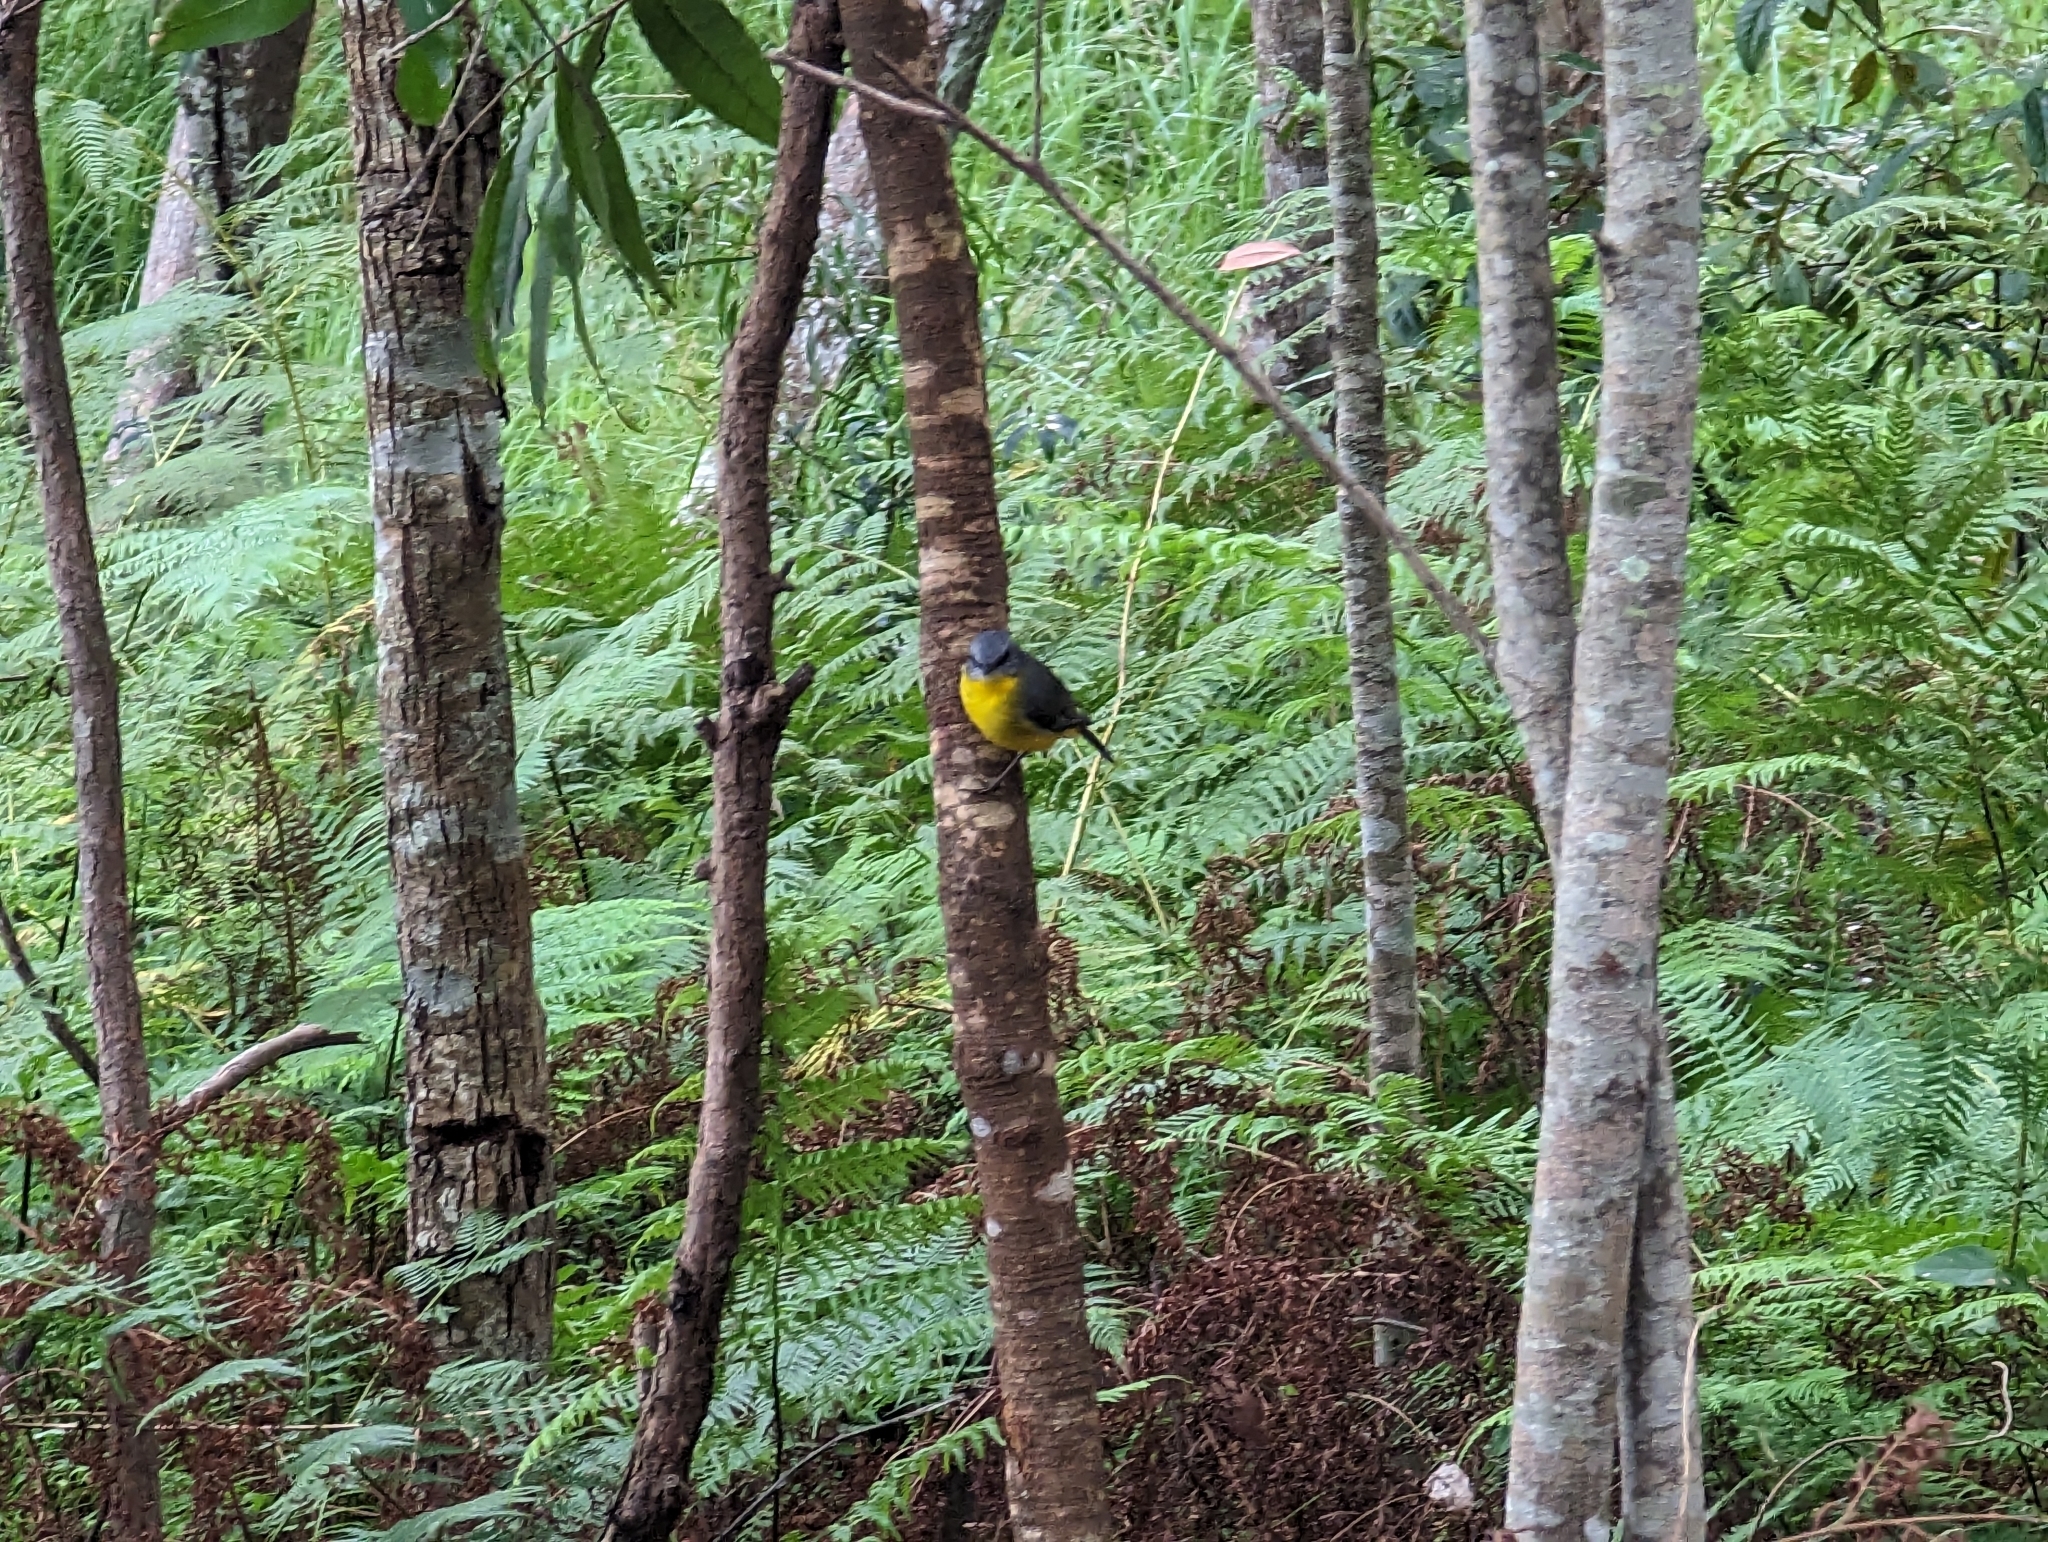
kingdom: Animalia
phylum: Chordata
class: Aves
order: Passeriformes
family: Petroicidae
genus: Eopsaltria
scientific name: Eopsaltria australis
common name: Eastern yellow robin
